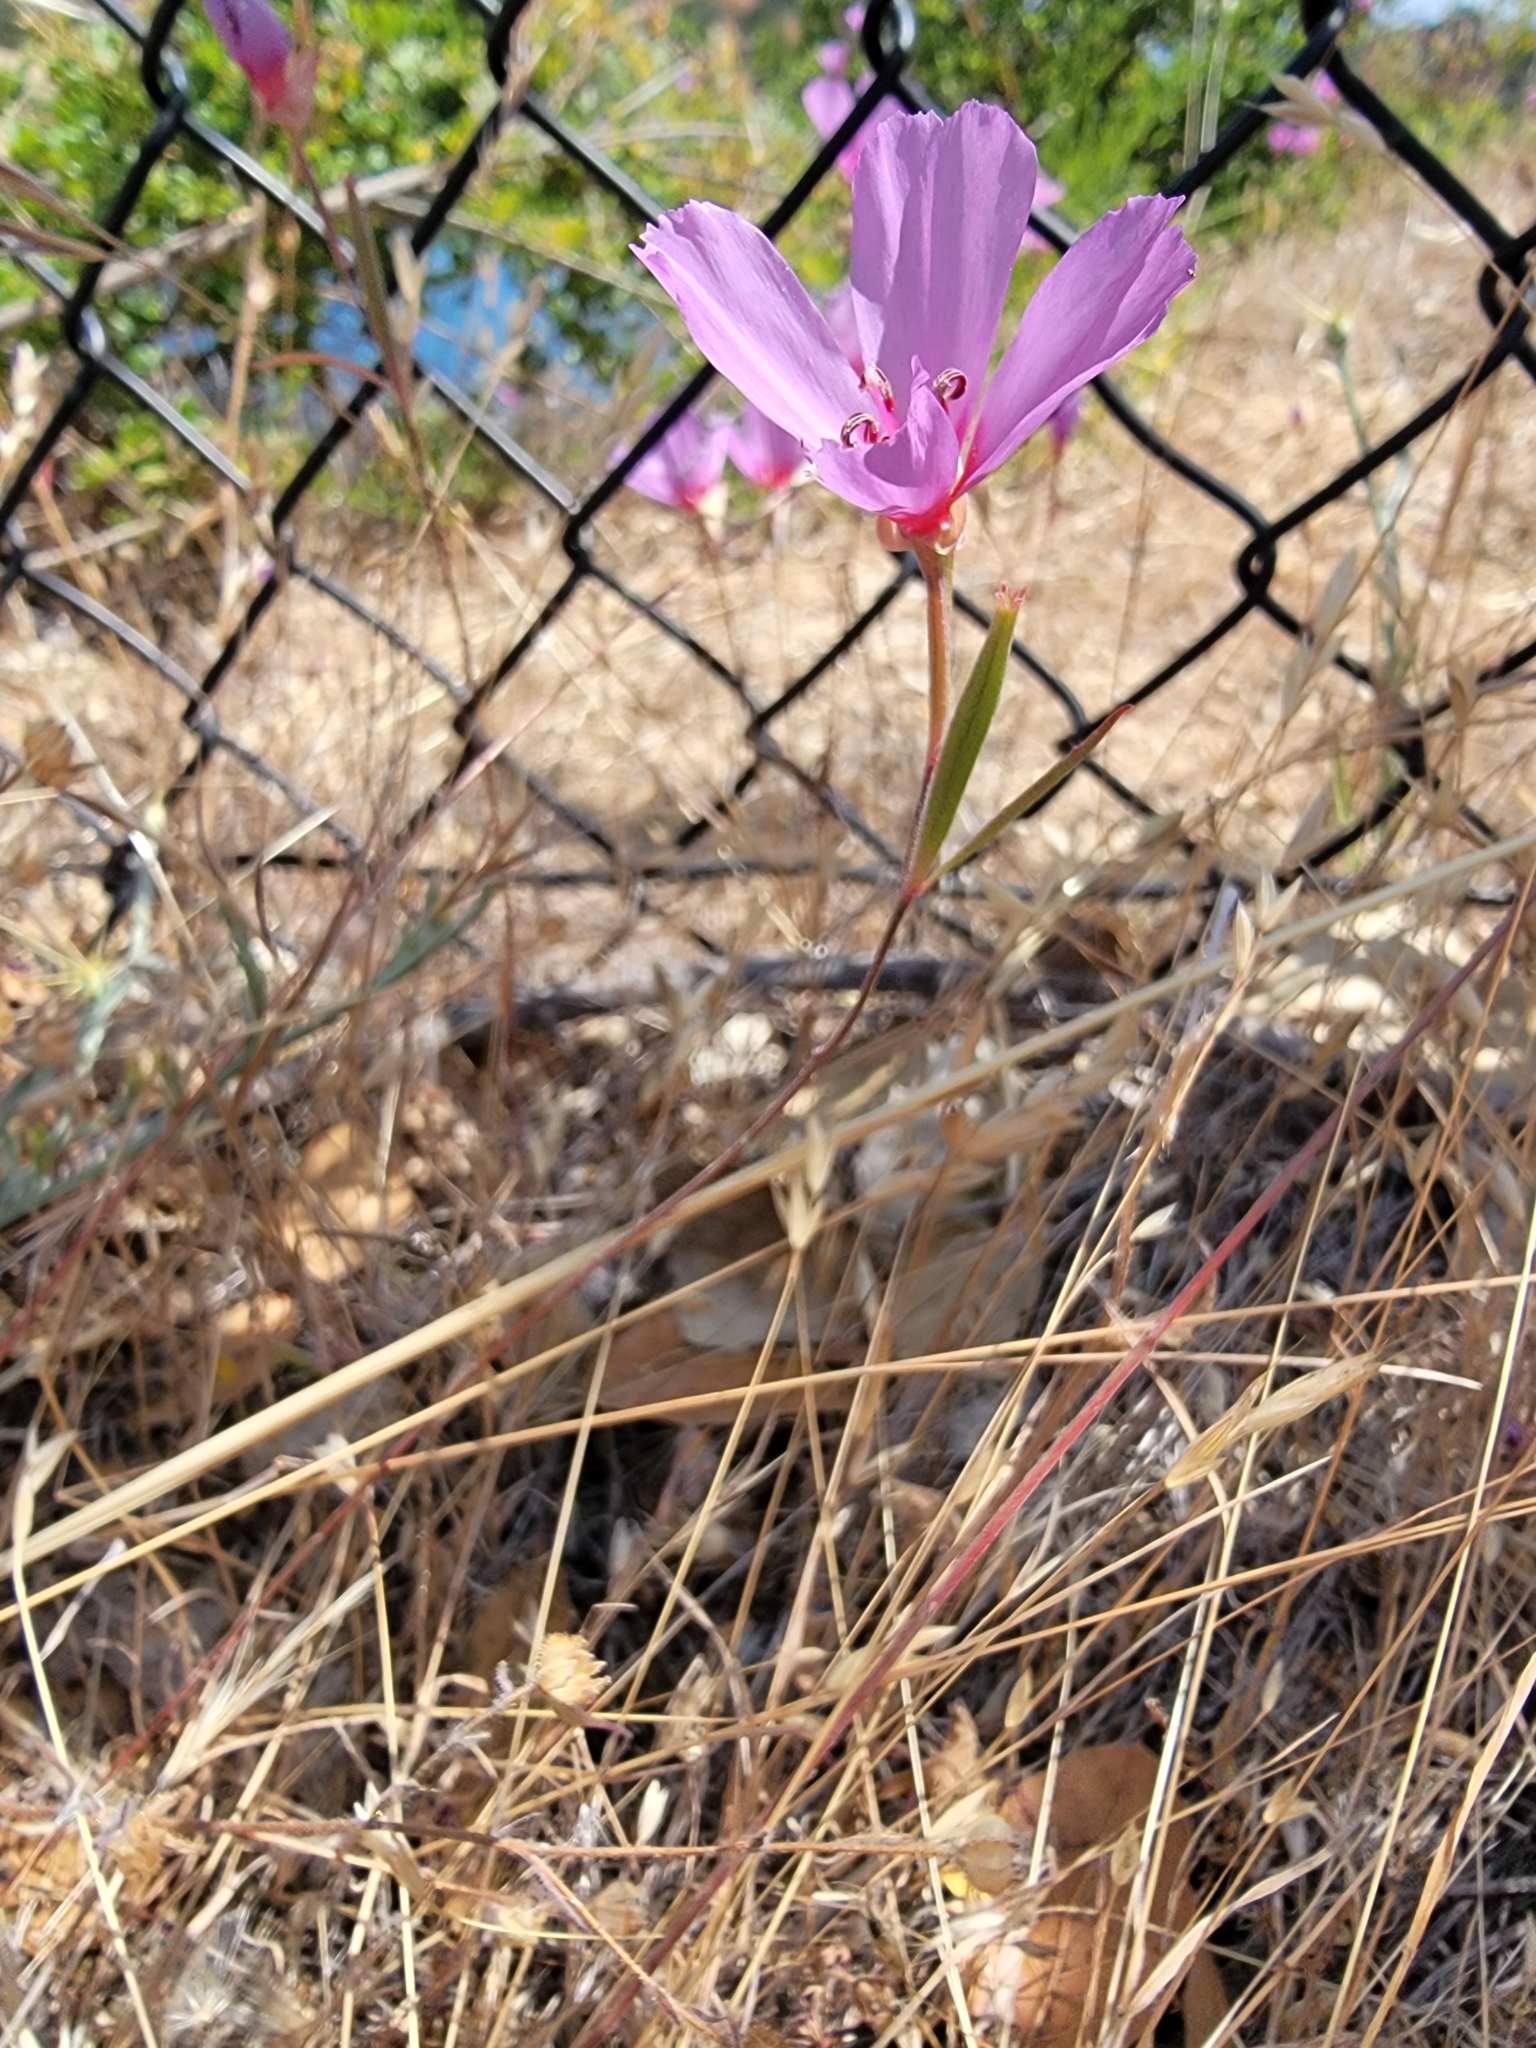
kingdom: Plantae
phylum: Tracheophyta
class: Magnoliopsida
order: Myrtales
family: Onagraceae
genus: Clarkia
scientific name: Clarkia rubicunda
